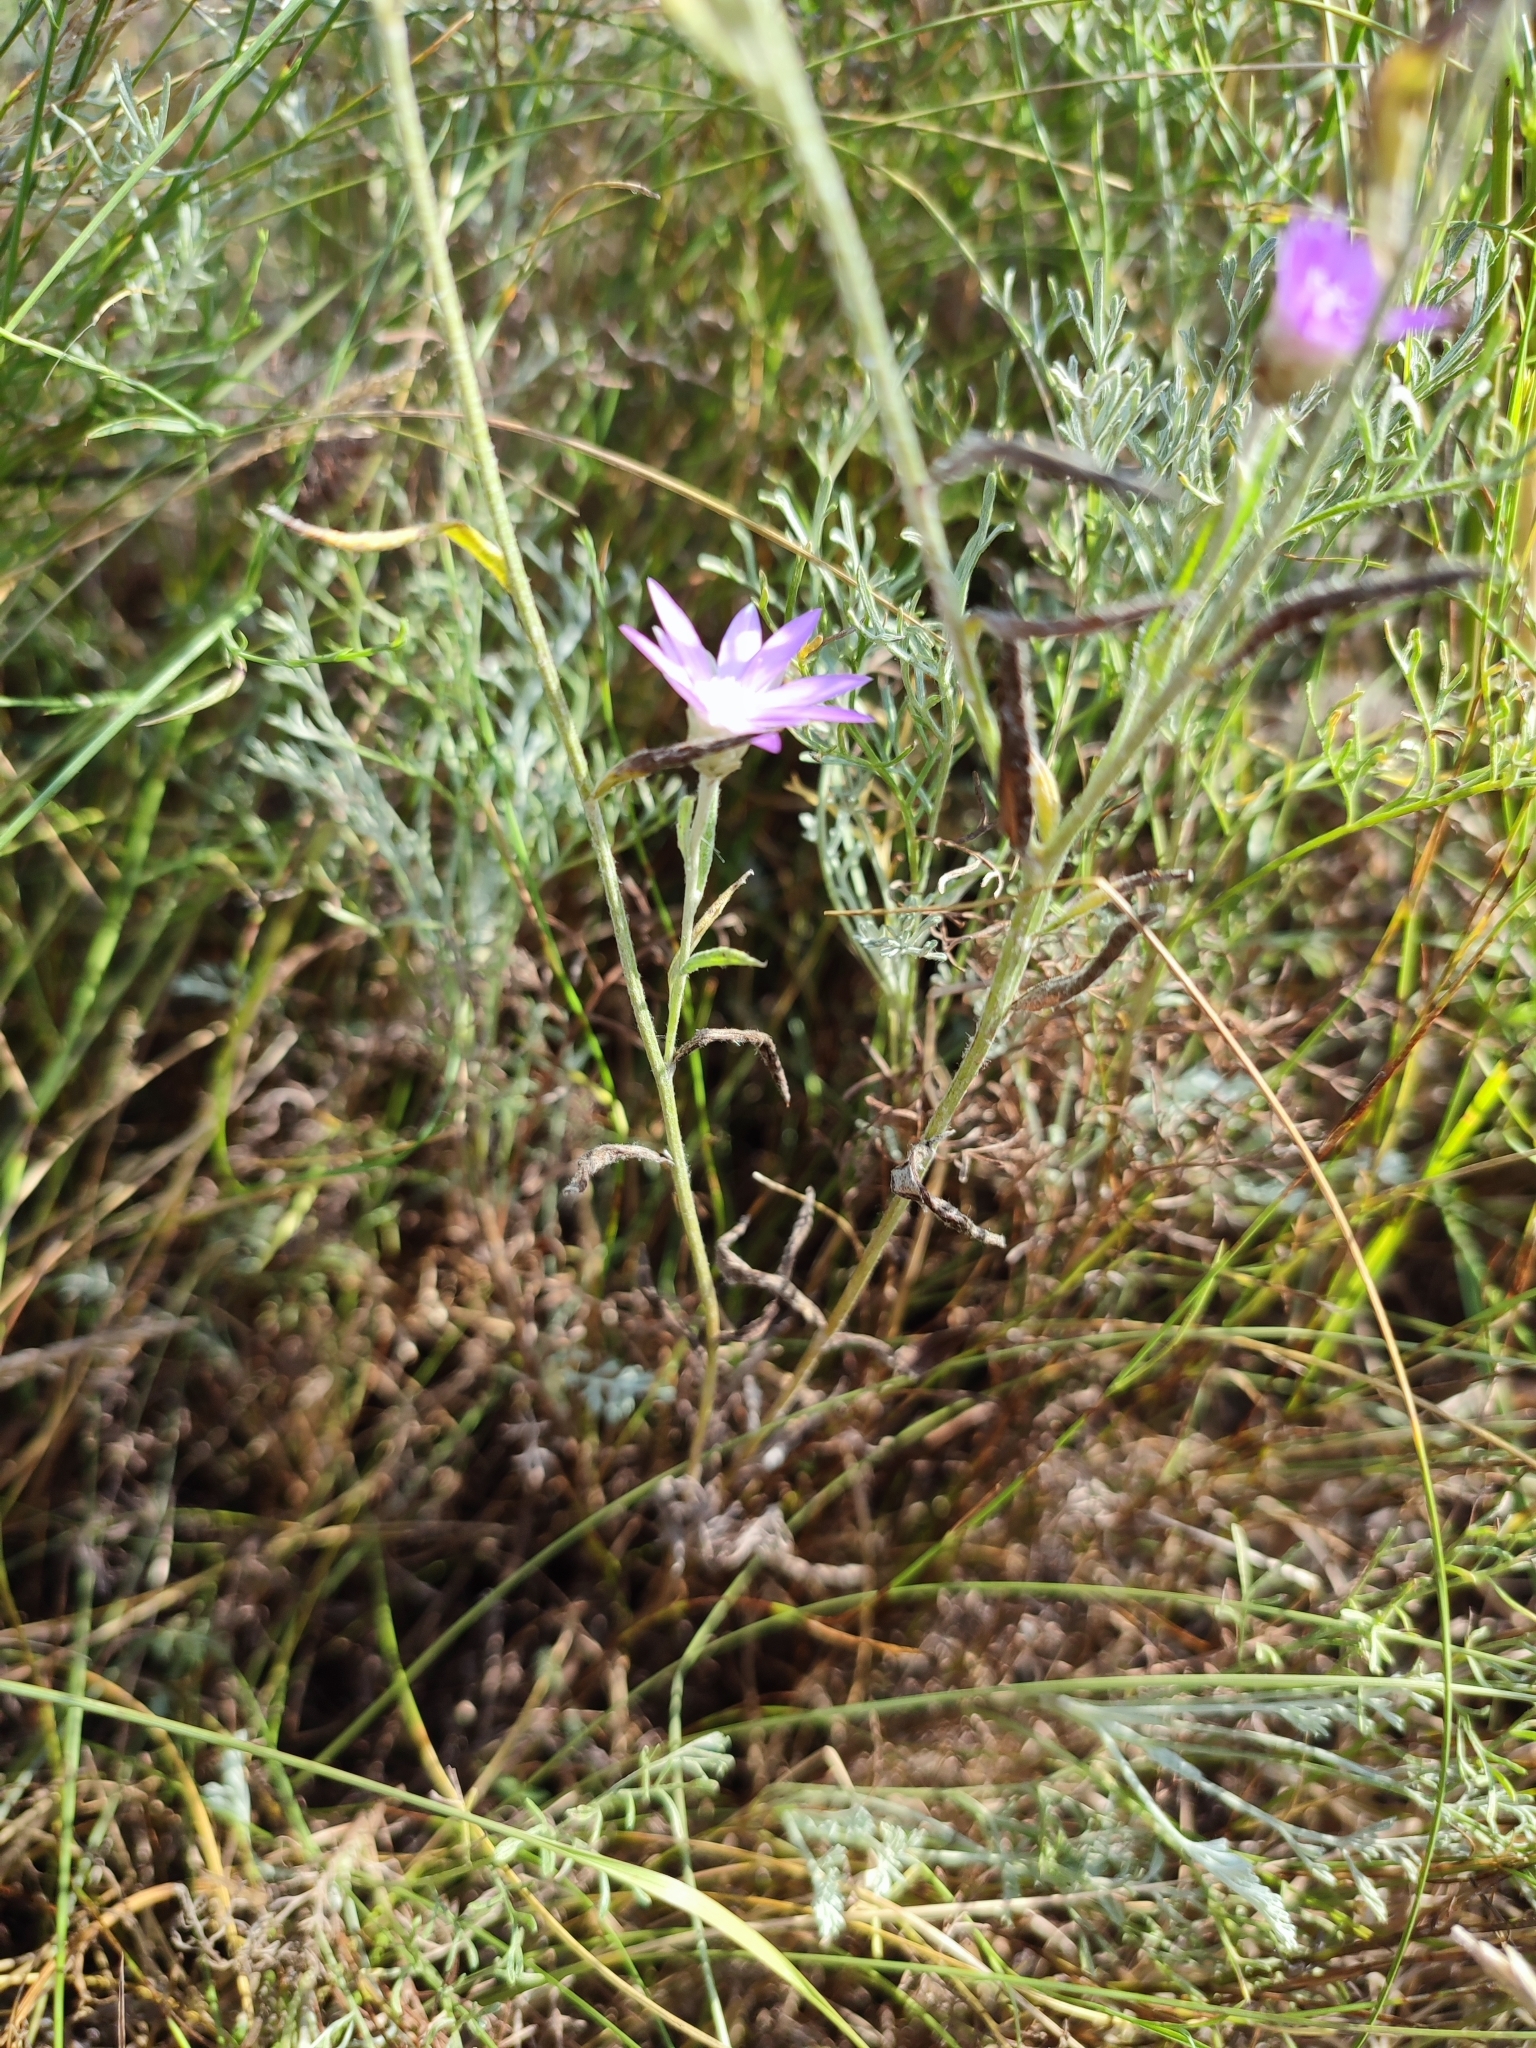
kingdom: Plantae
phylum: Tracheophyta
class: Magnoliopsida
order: Asterales
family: Asteraceae
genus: Xeranthemum
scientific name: Xeranthemum annuum
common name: Immortelle
